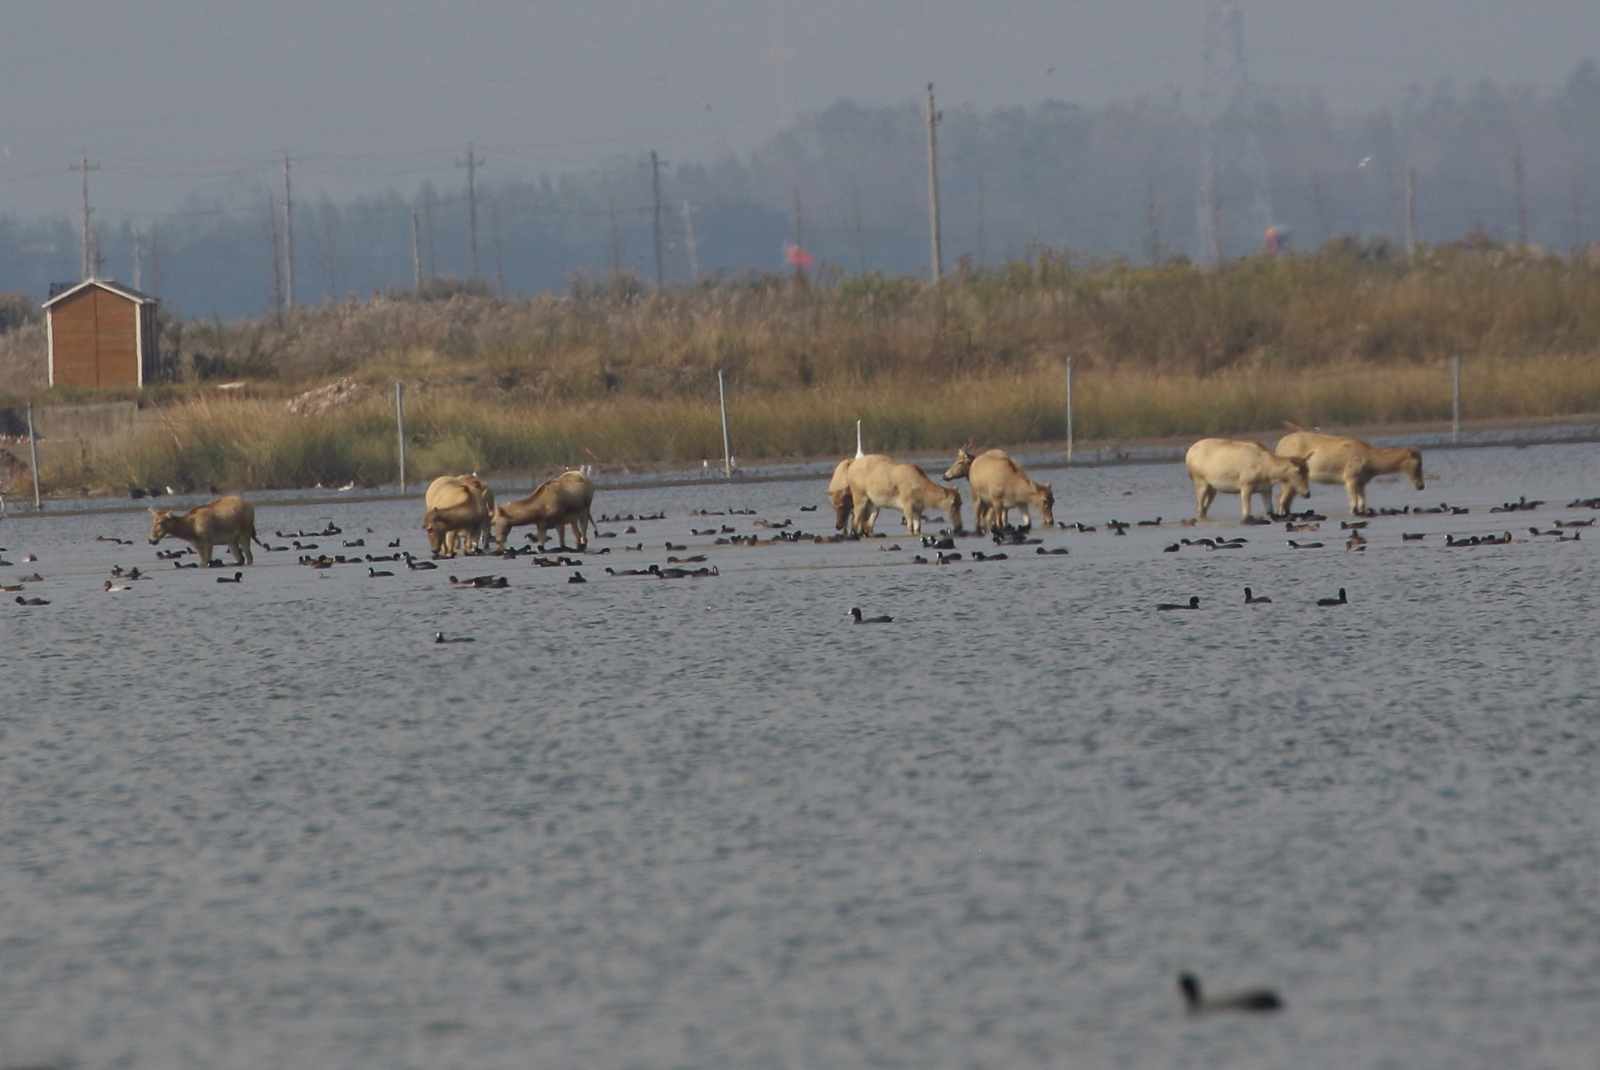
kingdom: Animalia
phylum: Chordata
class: Mammalia
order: Artiodactyla
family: Cervidae
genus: Elaphurus
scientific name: Elaphurus davidianus
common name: Père david's deer
